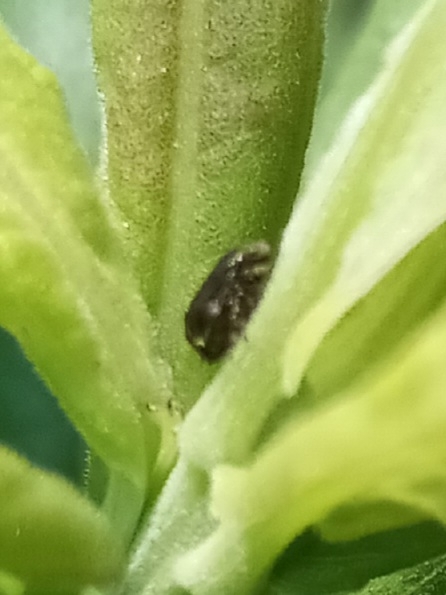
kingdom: Animalia
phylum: Arthropoda
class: Insecta
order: Hemiptera
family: Clastopteridae
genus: Clastoptera
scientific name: Clastoptera xanthocephala
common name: Sunflower spittlebug
